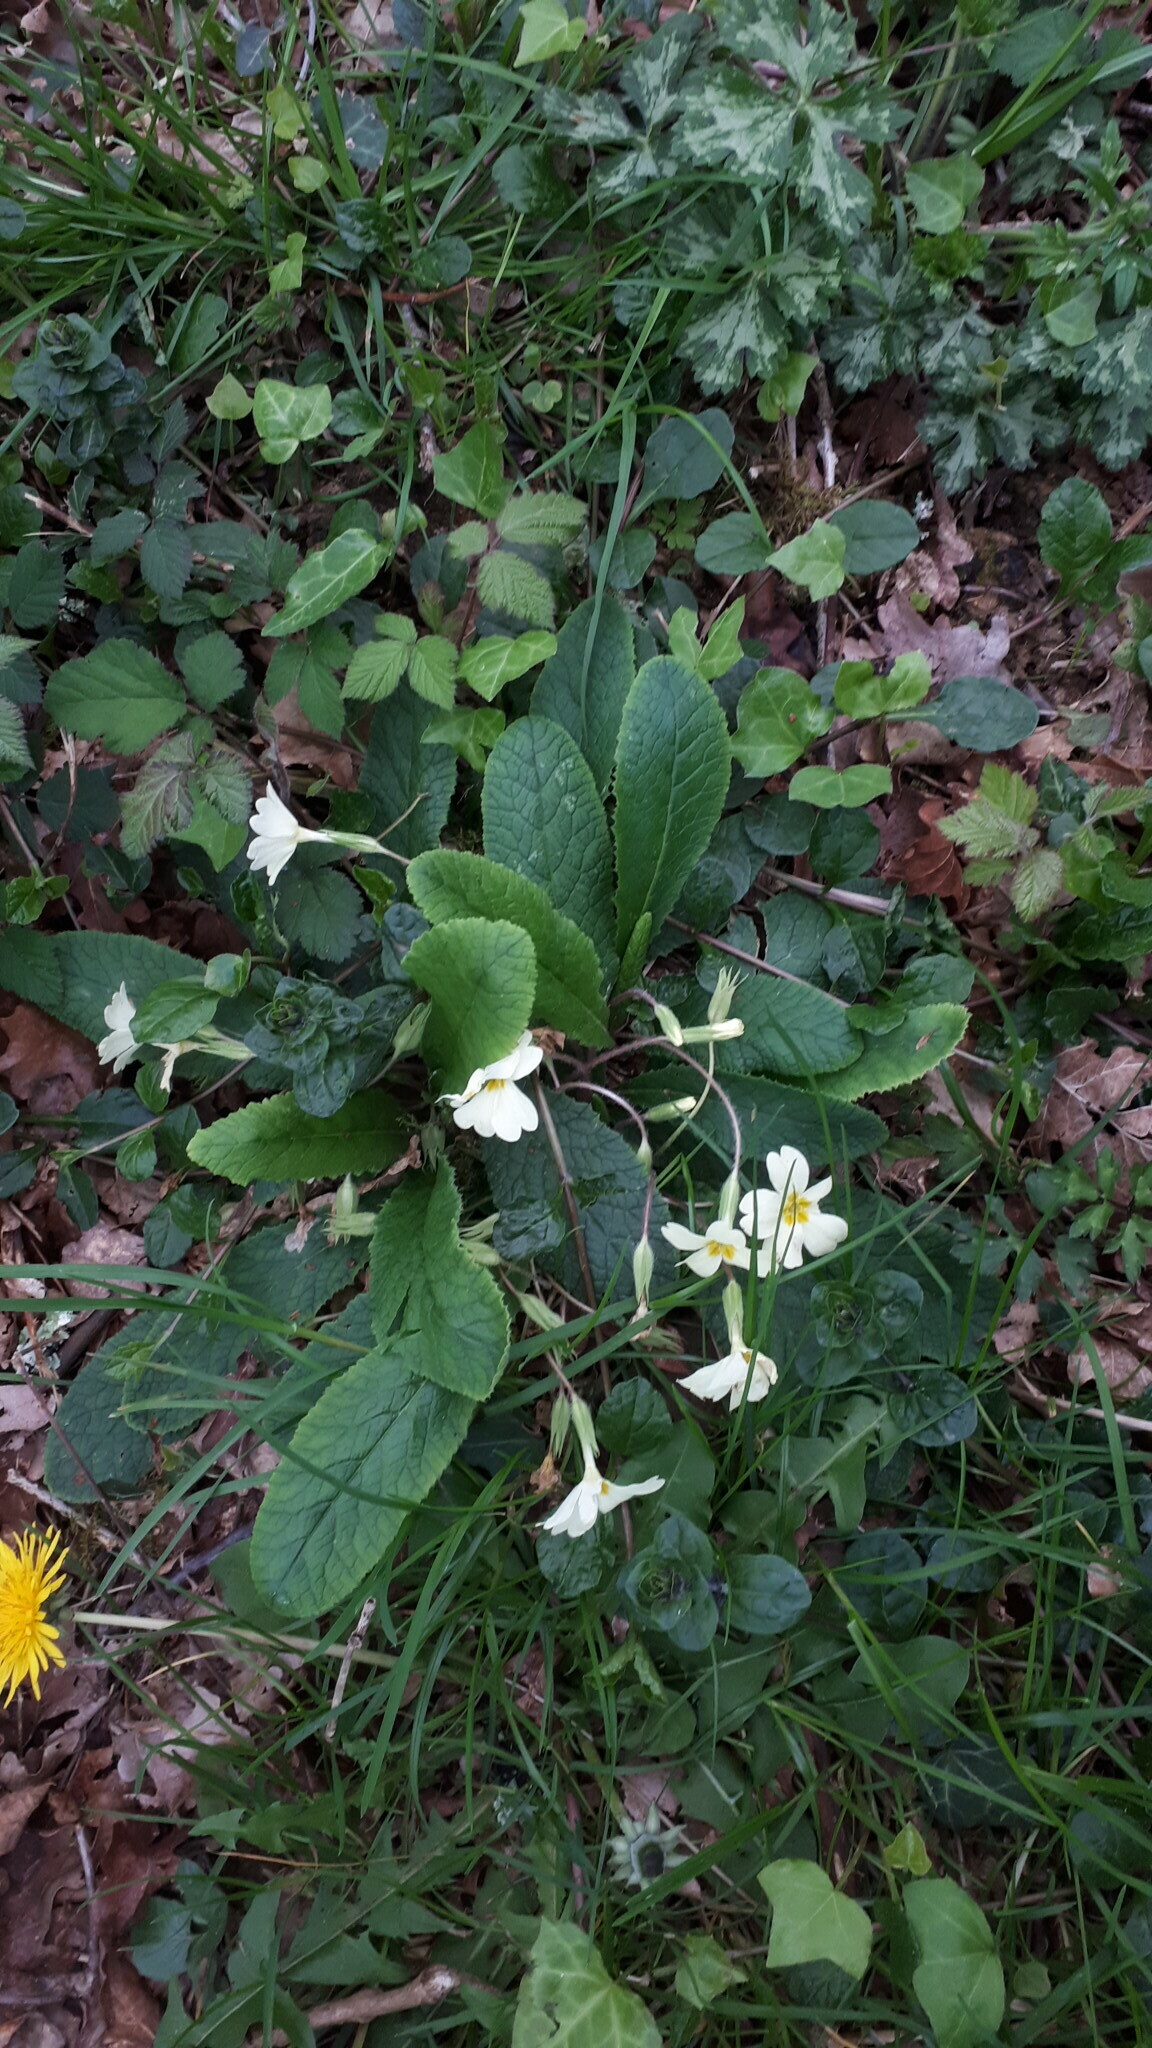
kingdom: Plantae
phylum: Tracheophyta
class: Magnoliopsida
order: Ericales
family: Primulaceae
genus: Primula
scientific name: Primula vulgaris
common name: Primrose
